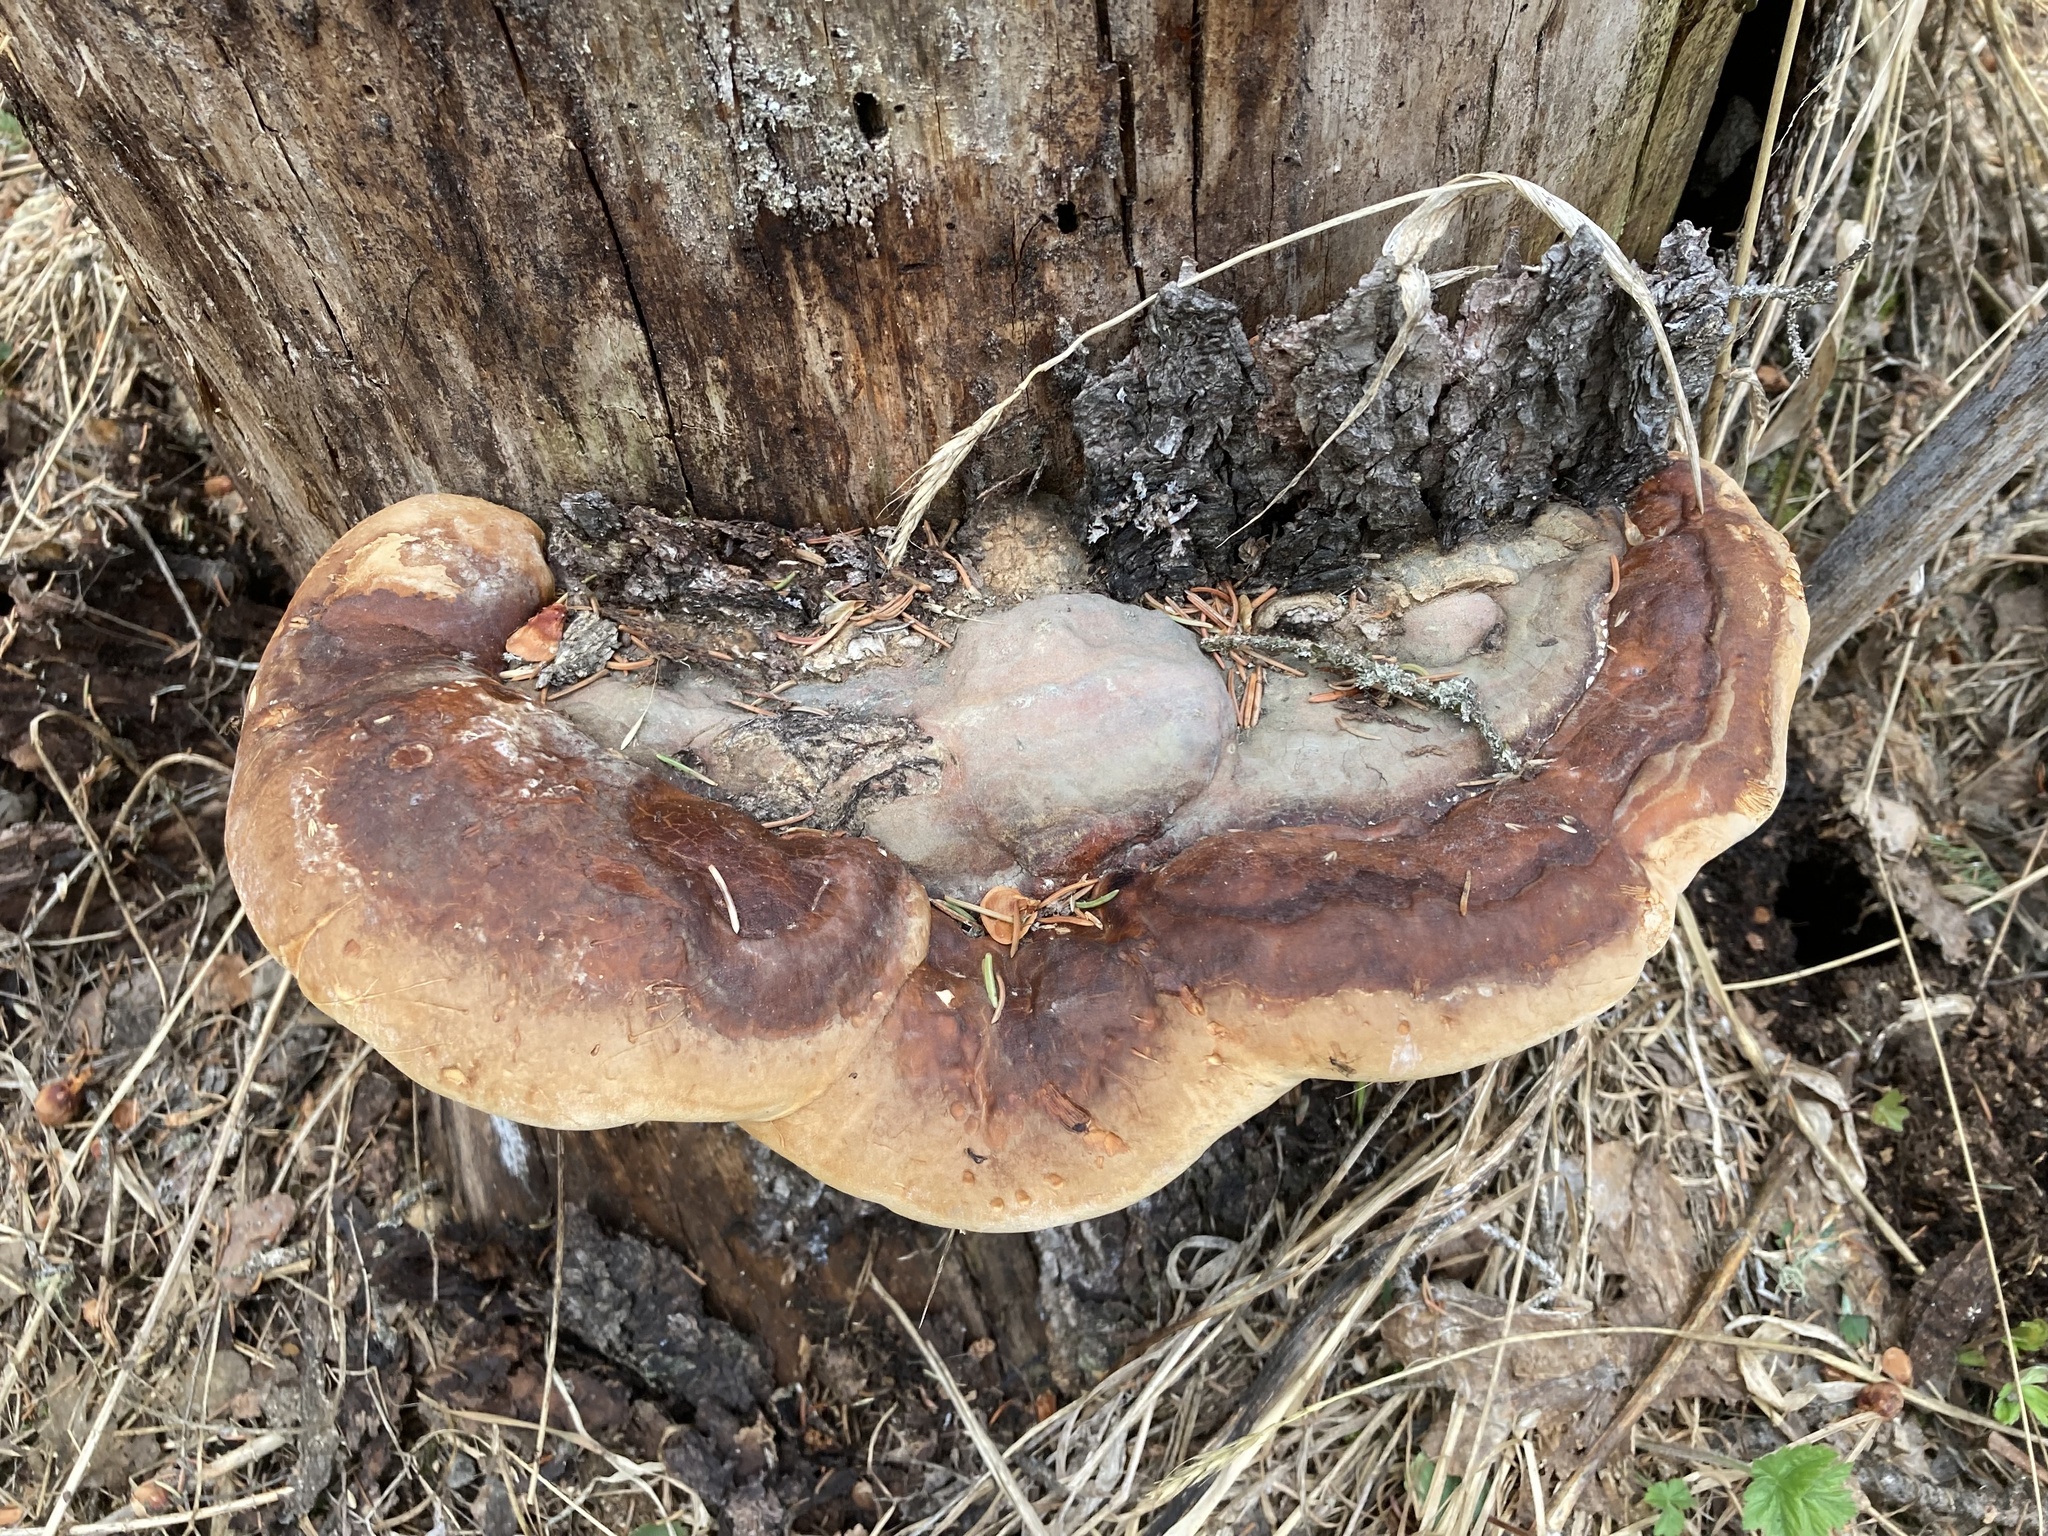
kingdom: Fungi
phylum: Basidiomycota
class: Agaricomycetes
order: Polyporales
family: Fomitopsidaceae
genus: Fomitopsis
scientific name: Fomitopsis mounceae
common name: Northern red belt
